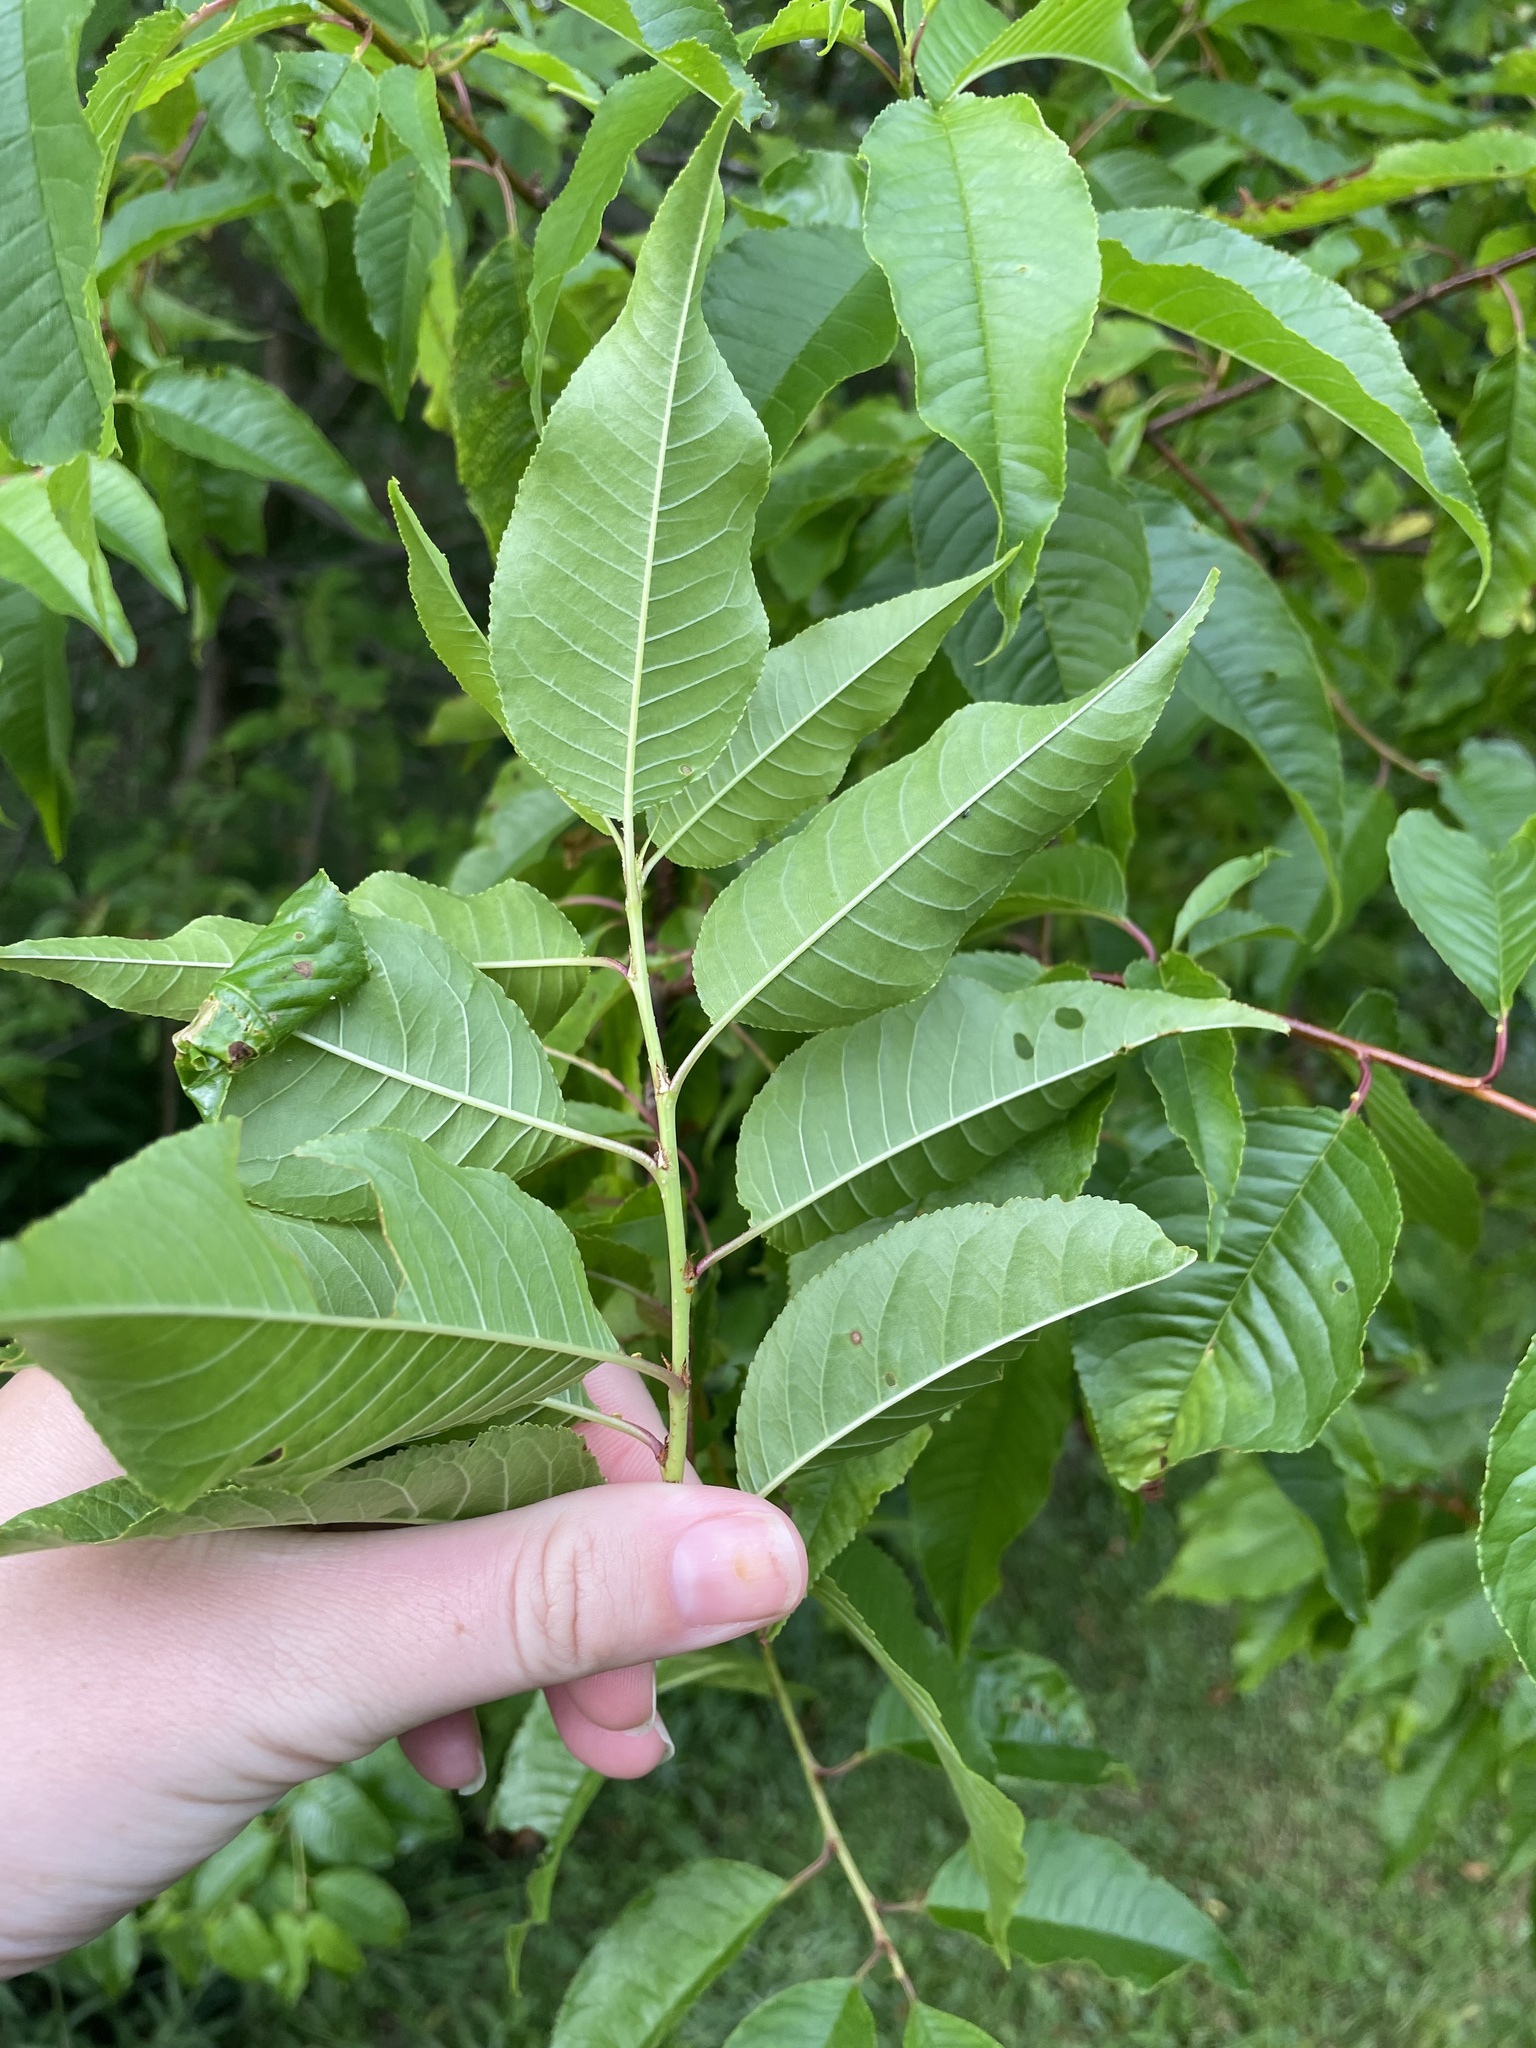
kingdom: Plantae
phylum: Tracheophyta
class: Magnoliopsida
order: Rosales
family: Rosaceae
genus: Prunus
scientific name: Prunus pensylvanica
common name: Pin cherry
